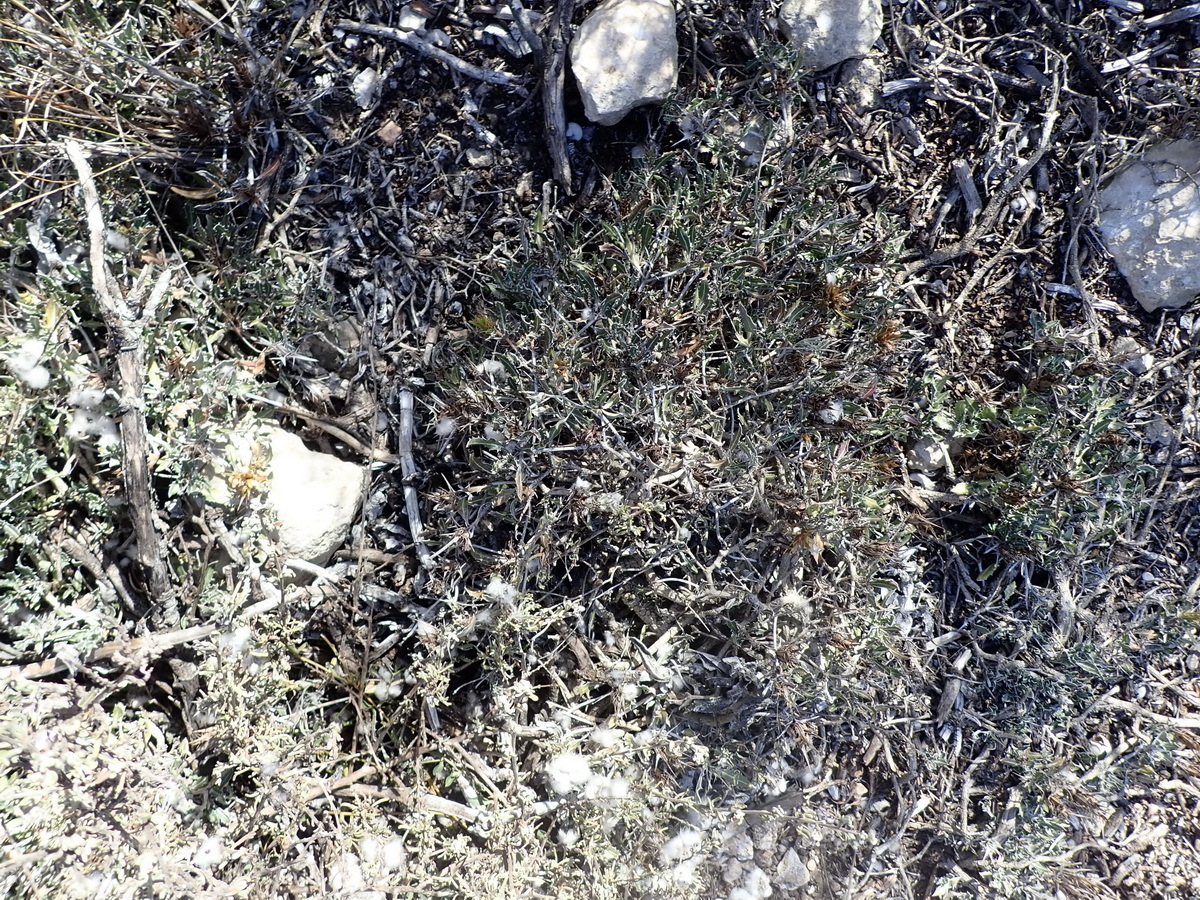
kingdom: Plantae
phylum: Tracheophyta
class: Magnoliopsida
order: Lamiales
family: Acanthaceae
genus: Blepharis
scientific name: Blepharis capensis
